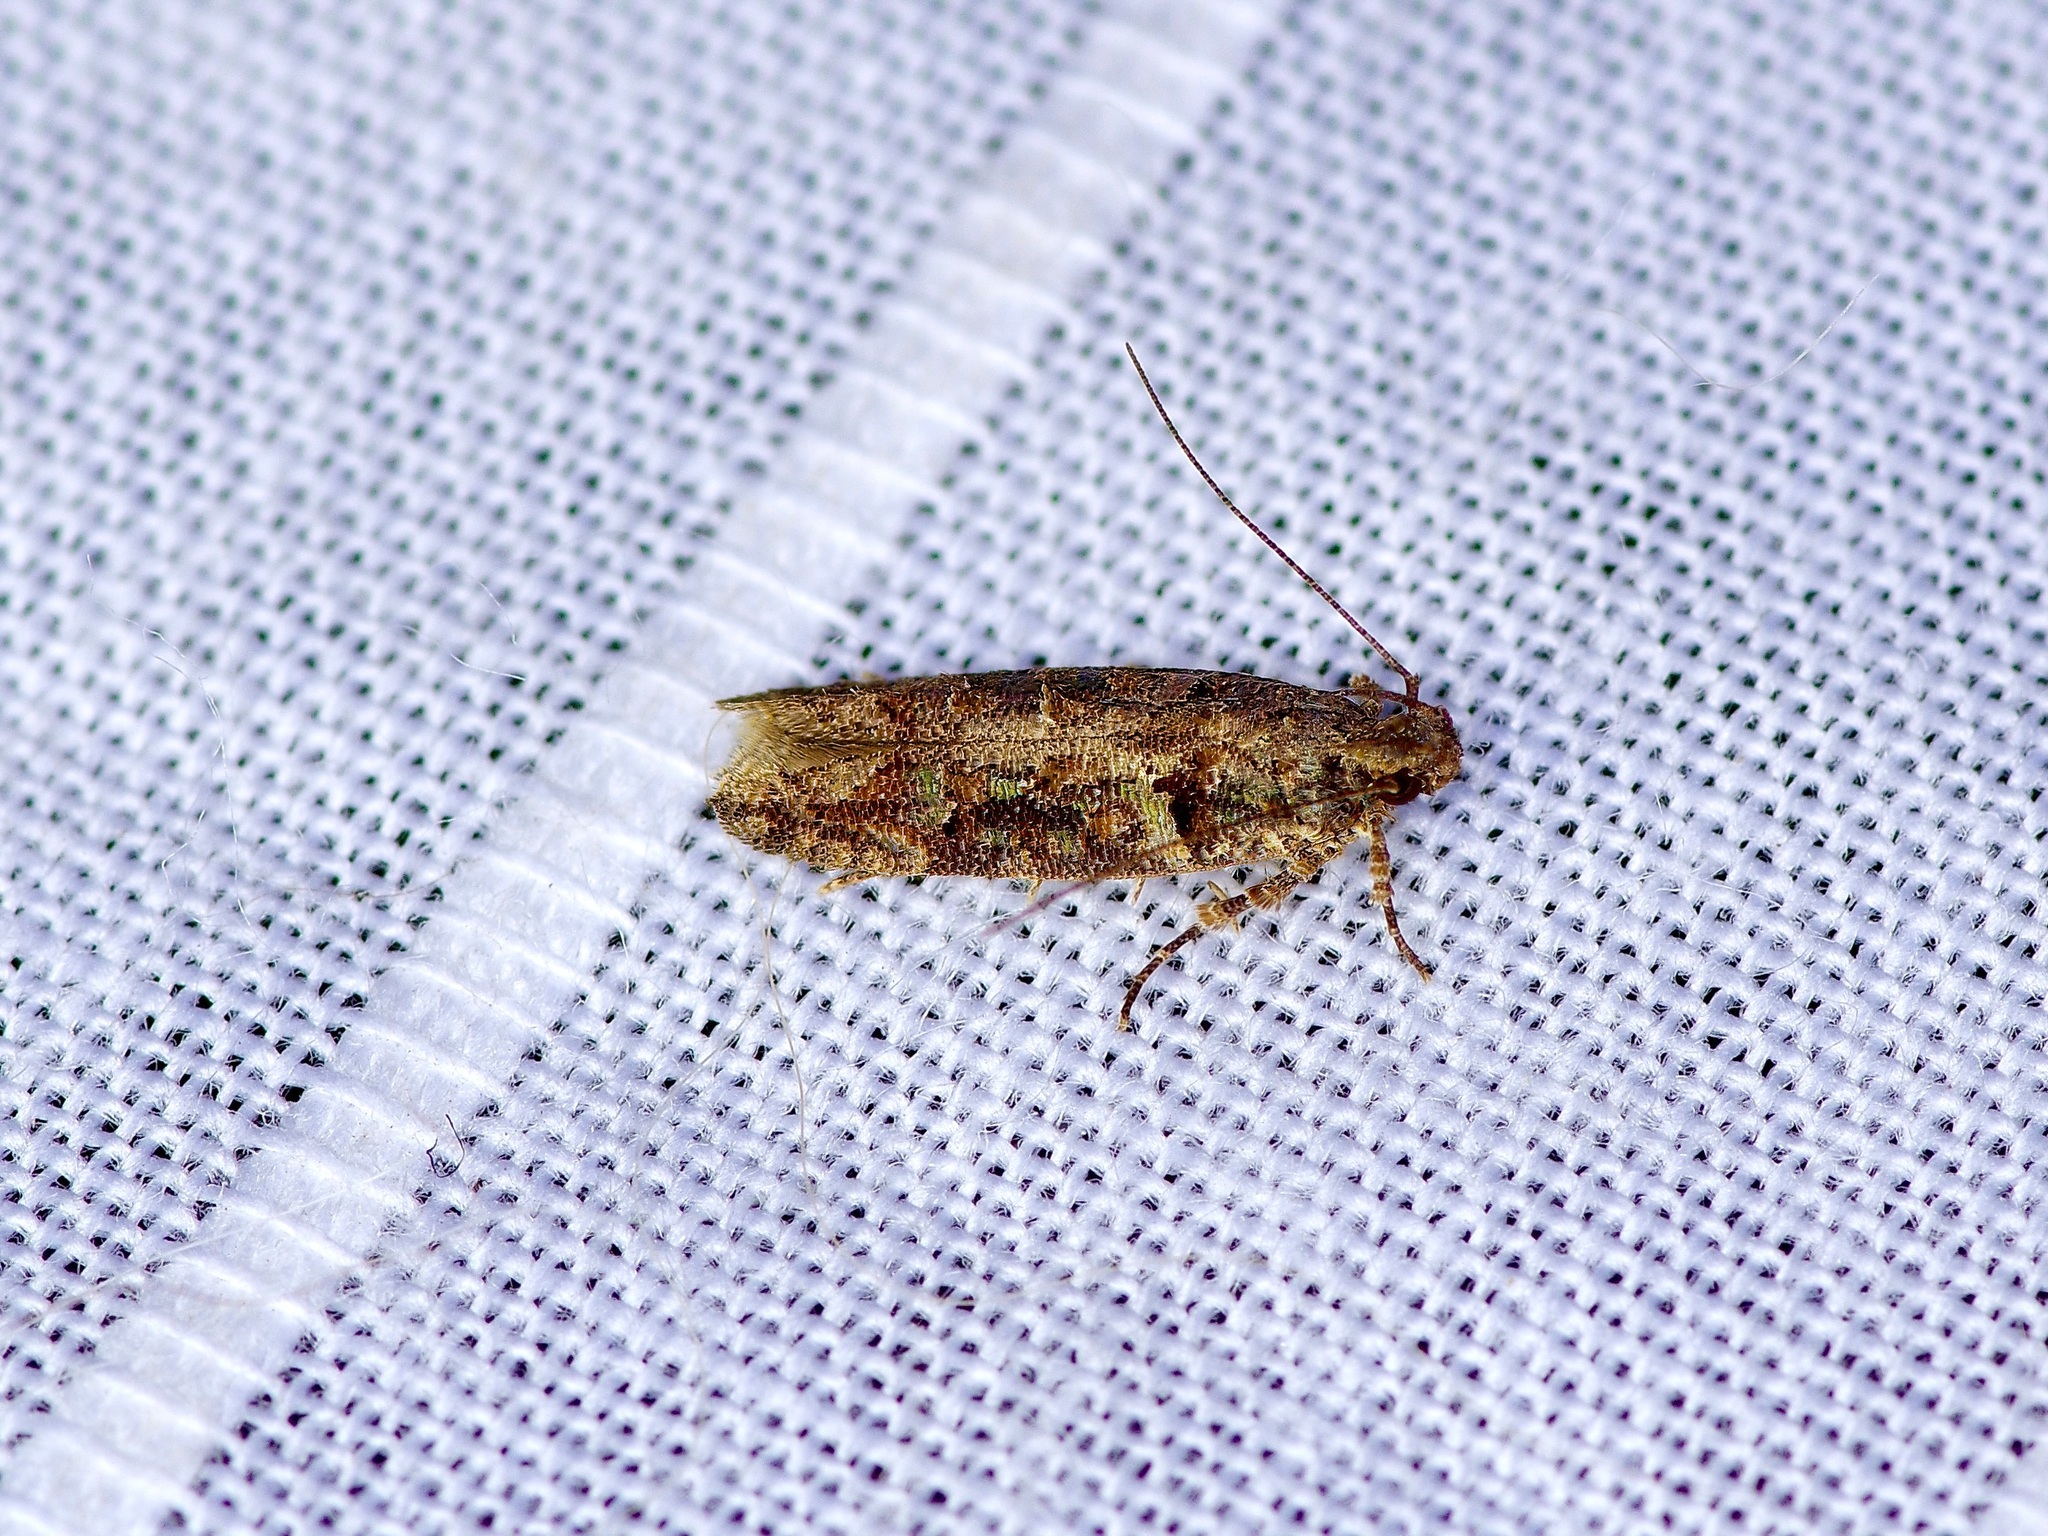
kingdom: Animalia
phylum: Arthropoda
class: Insecta
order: Lepidoptera
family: Gelechiidae
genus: Telphusa
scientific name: Telphusa perspicua
